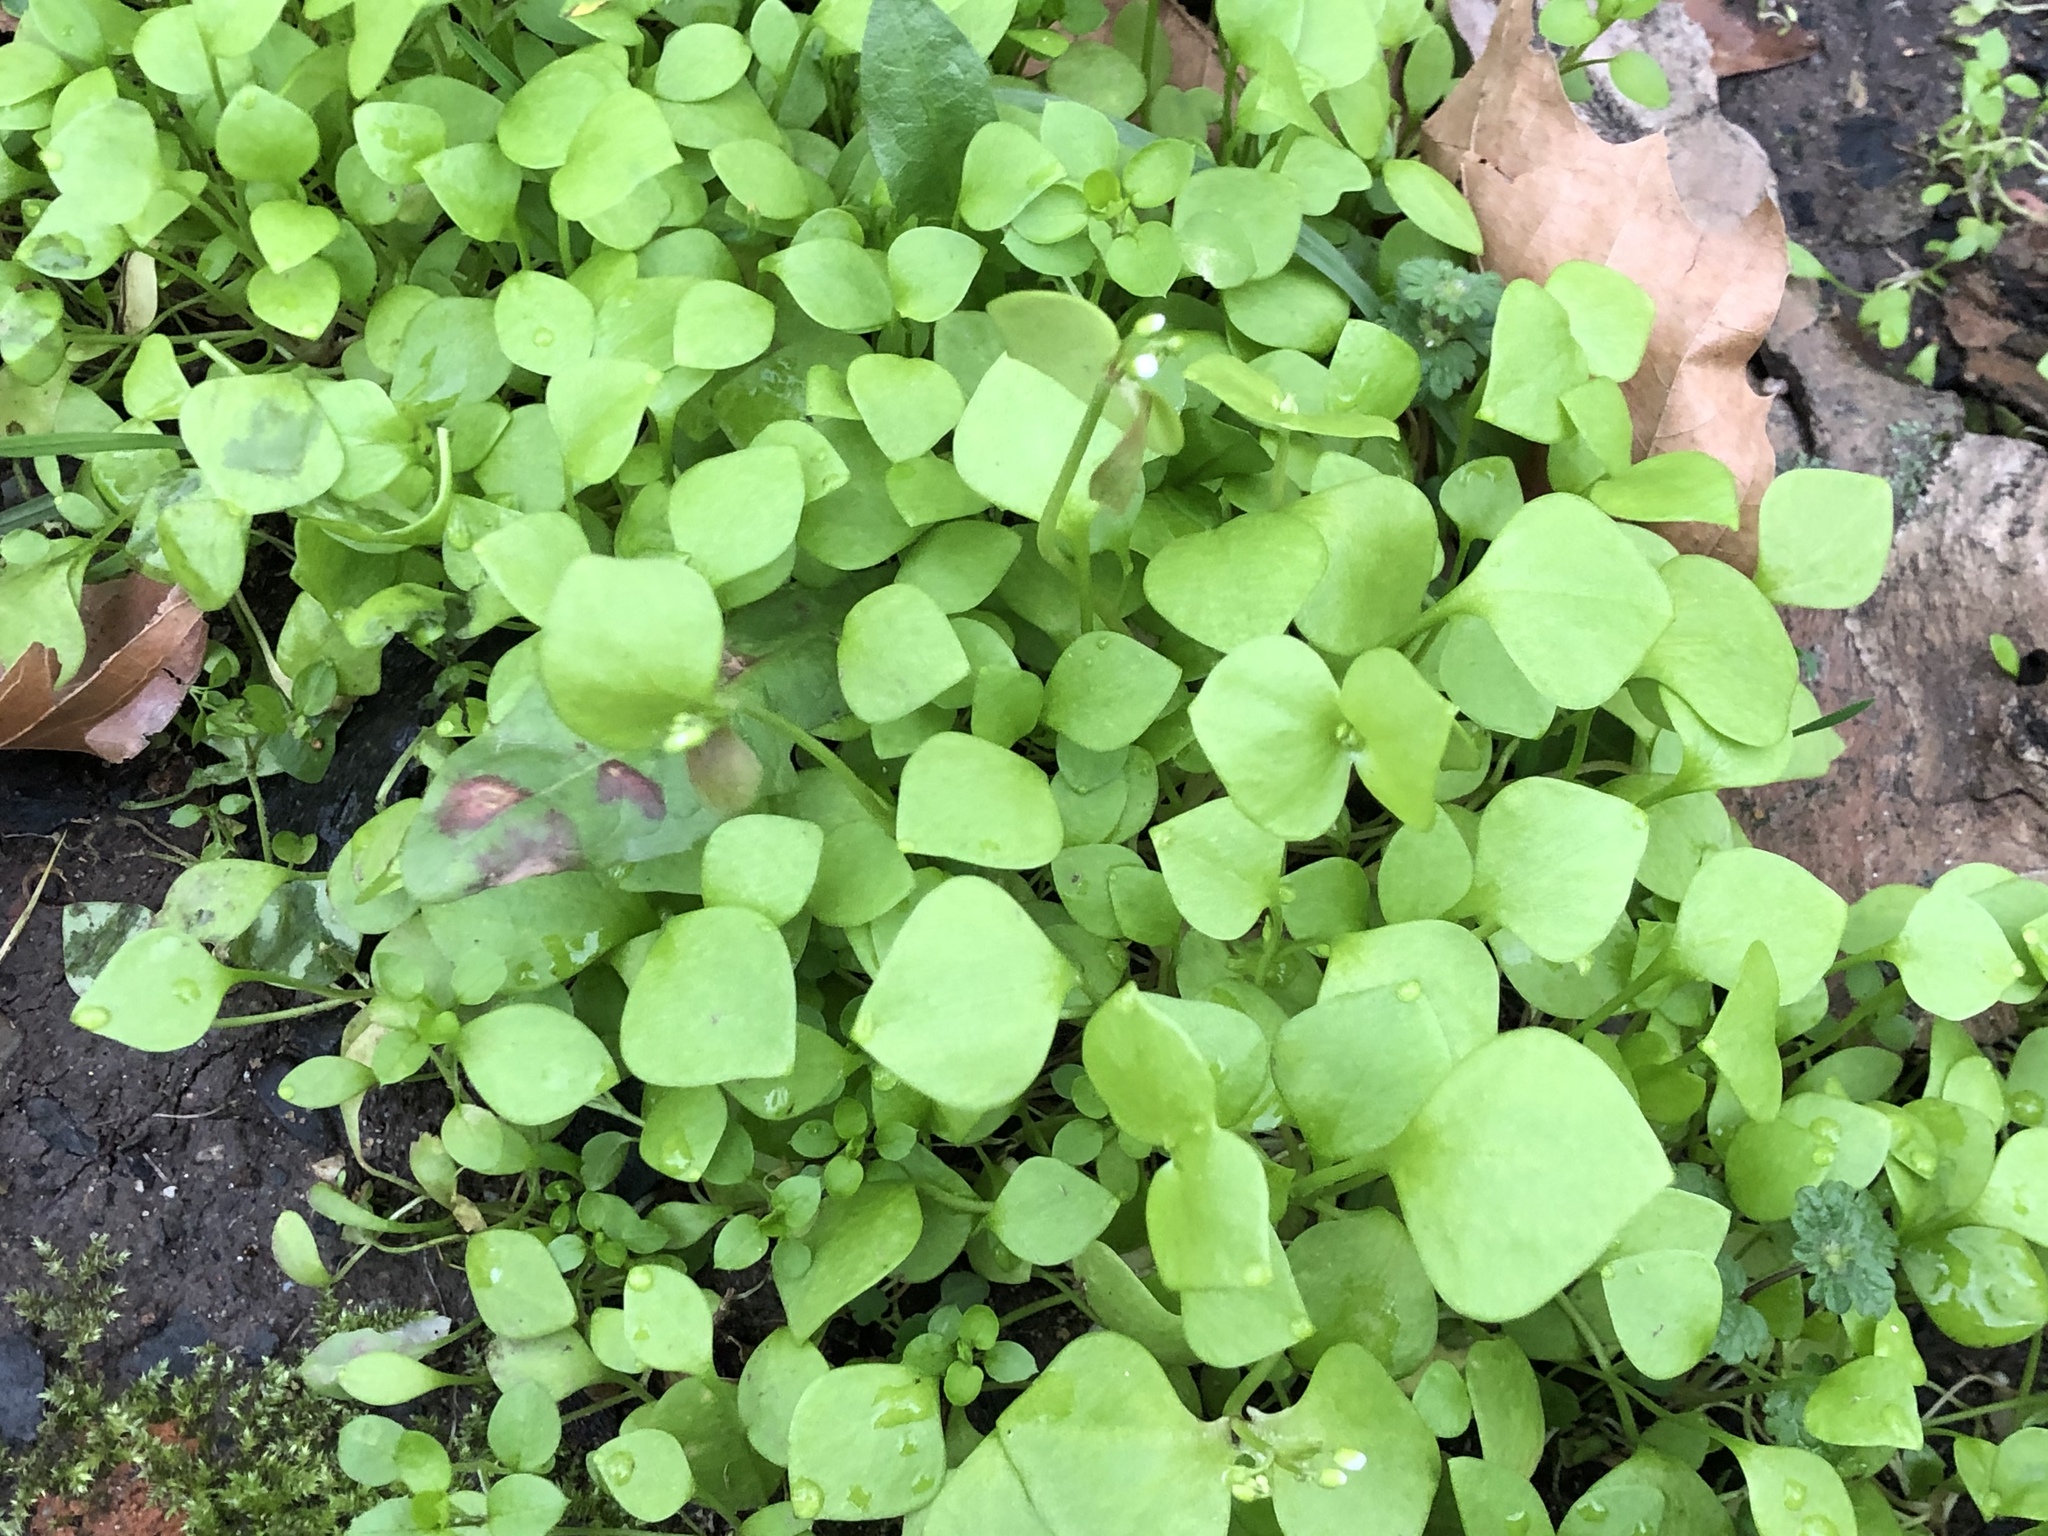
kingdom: Plantae
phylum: Tracheophyta
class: Magnoliopsida
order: Caryophyllales
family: Montiaceae
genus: Claytonia
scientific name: Claytonia perfoliata
